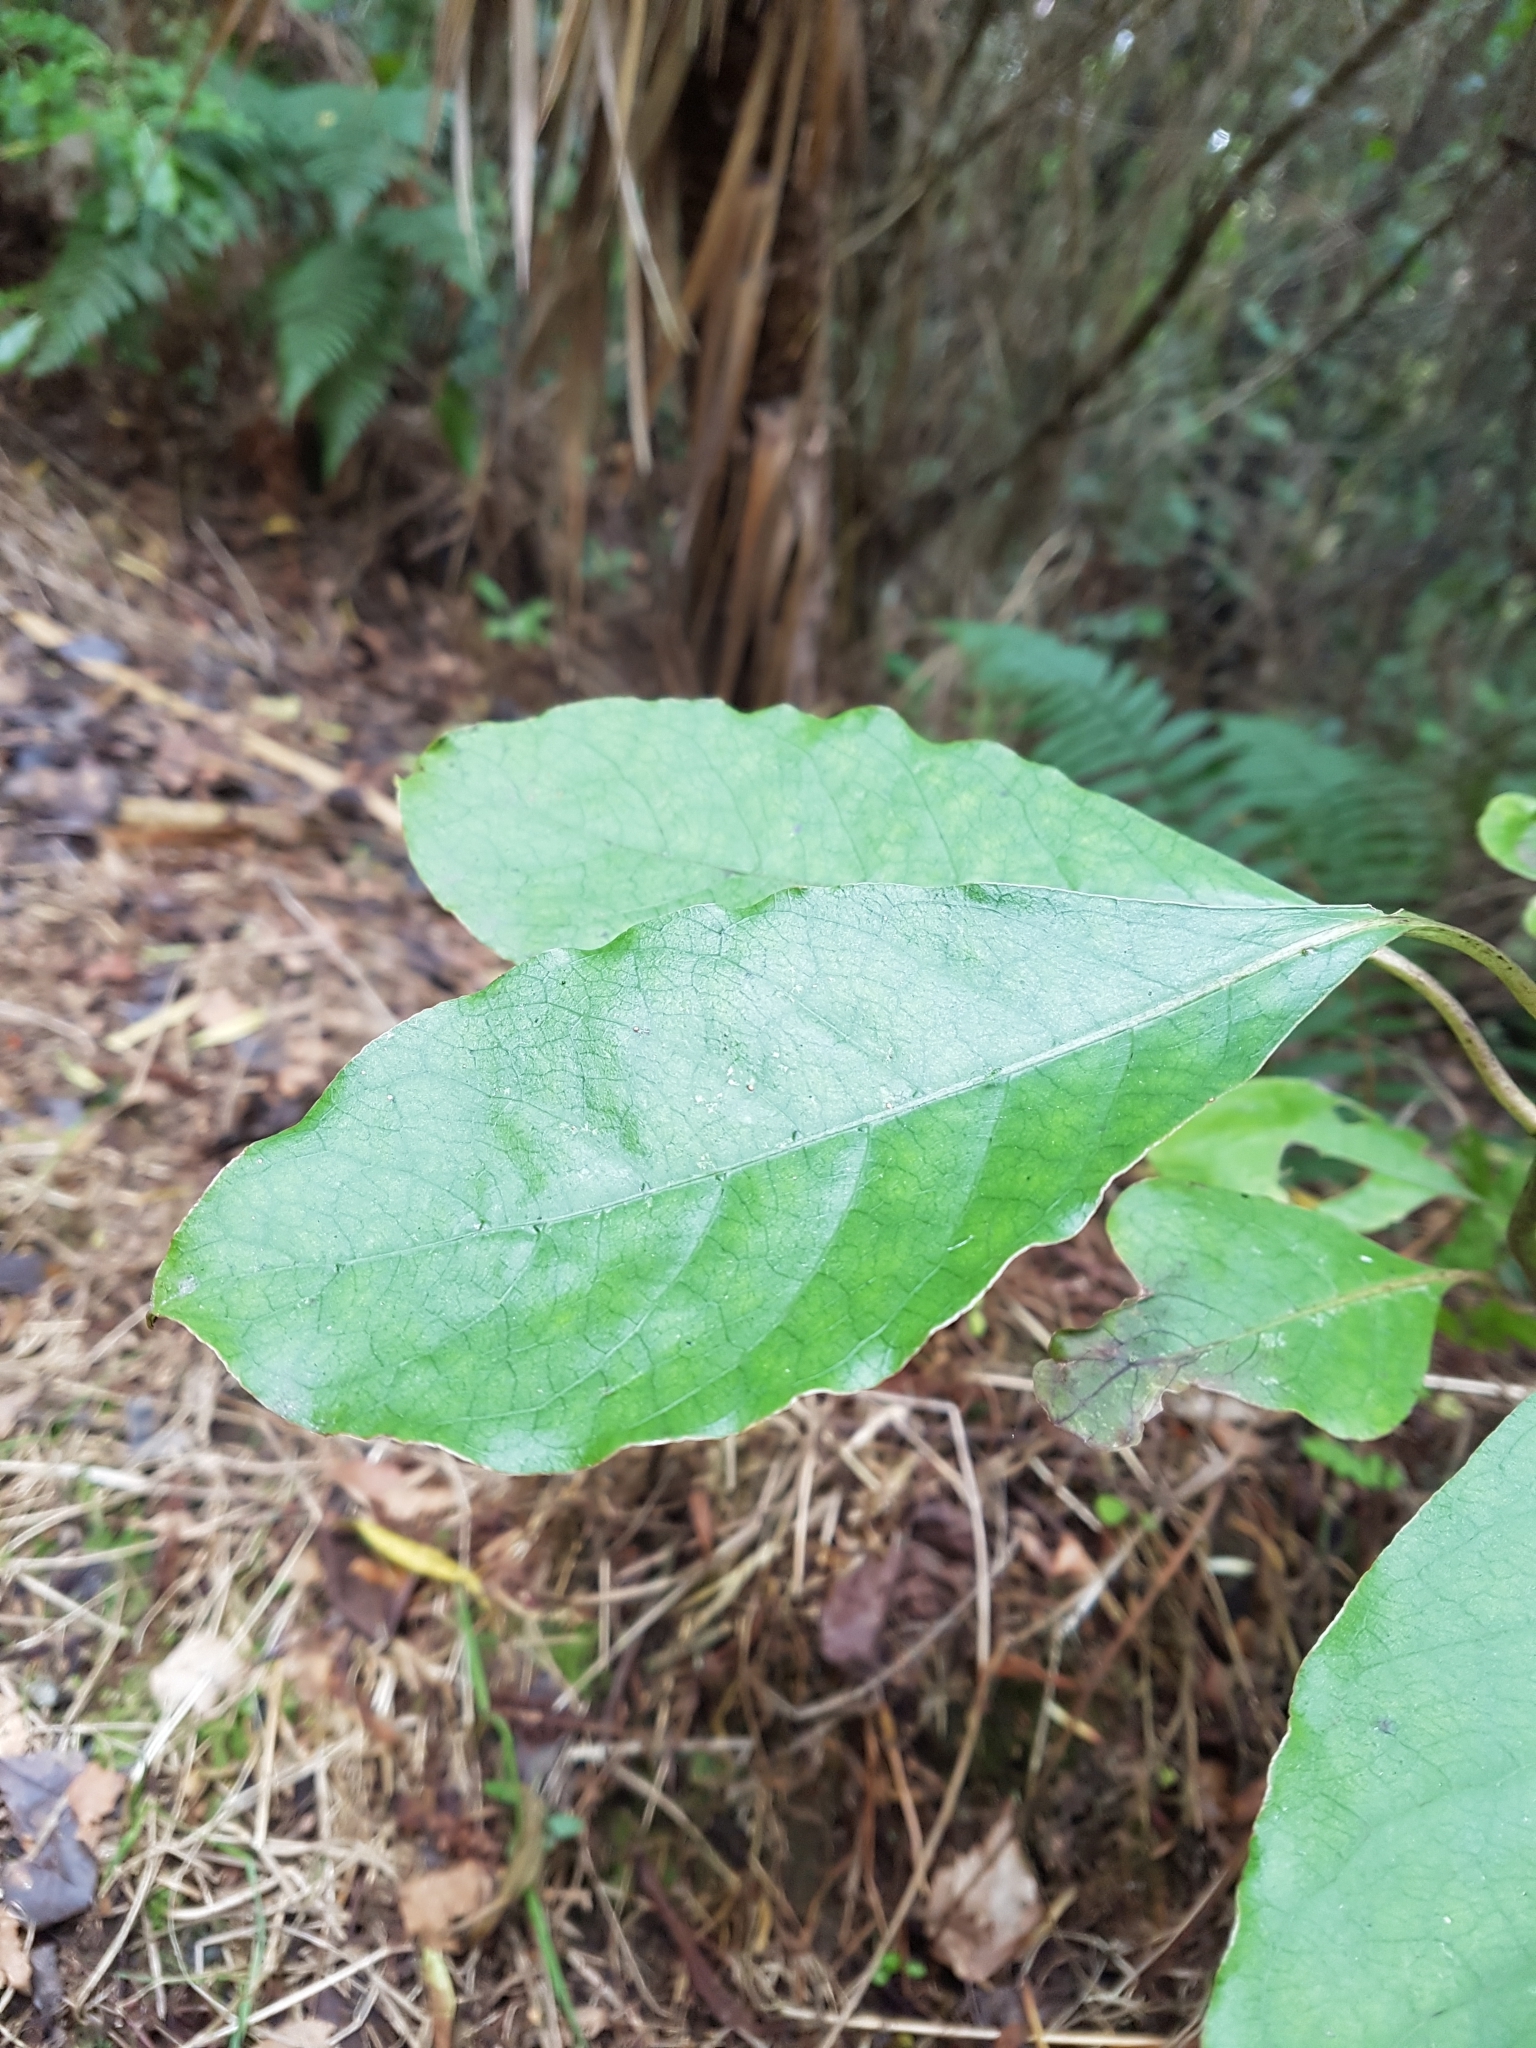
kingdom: Plantae
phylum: Tracheophyta
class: Magnoliopsida
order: Gentianales
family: Rubiaceae
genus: Coprosma
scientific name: Coprosma autumnalis
